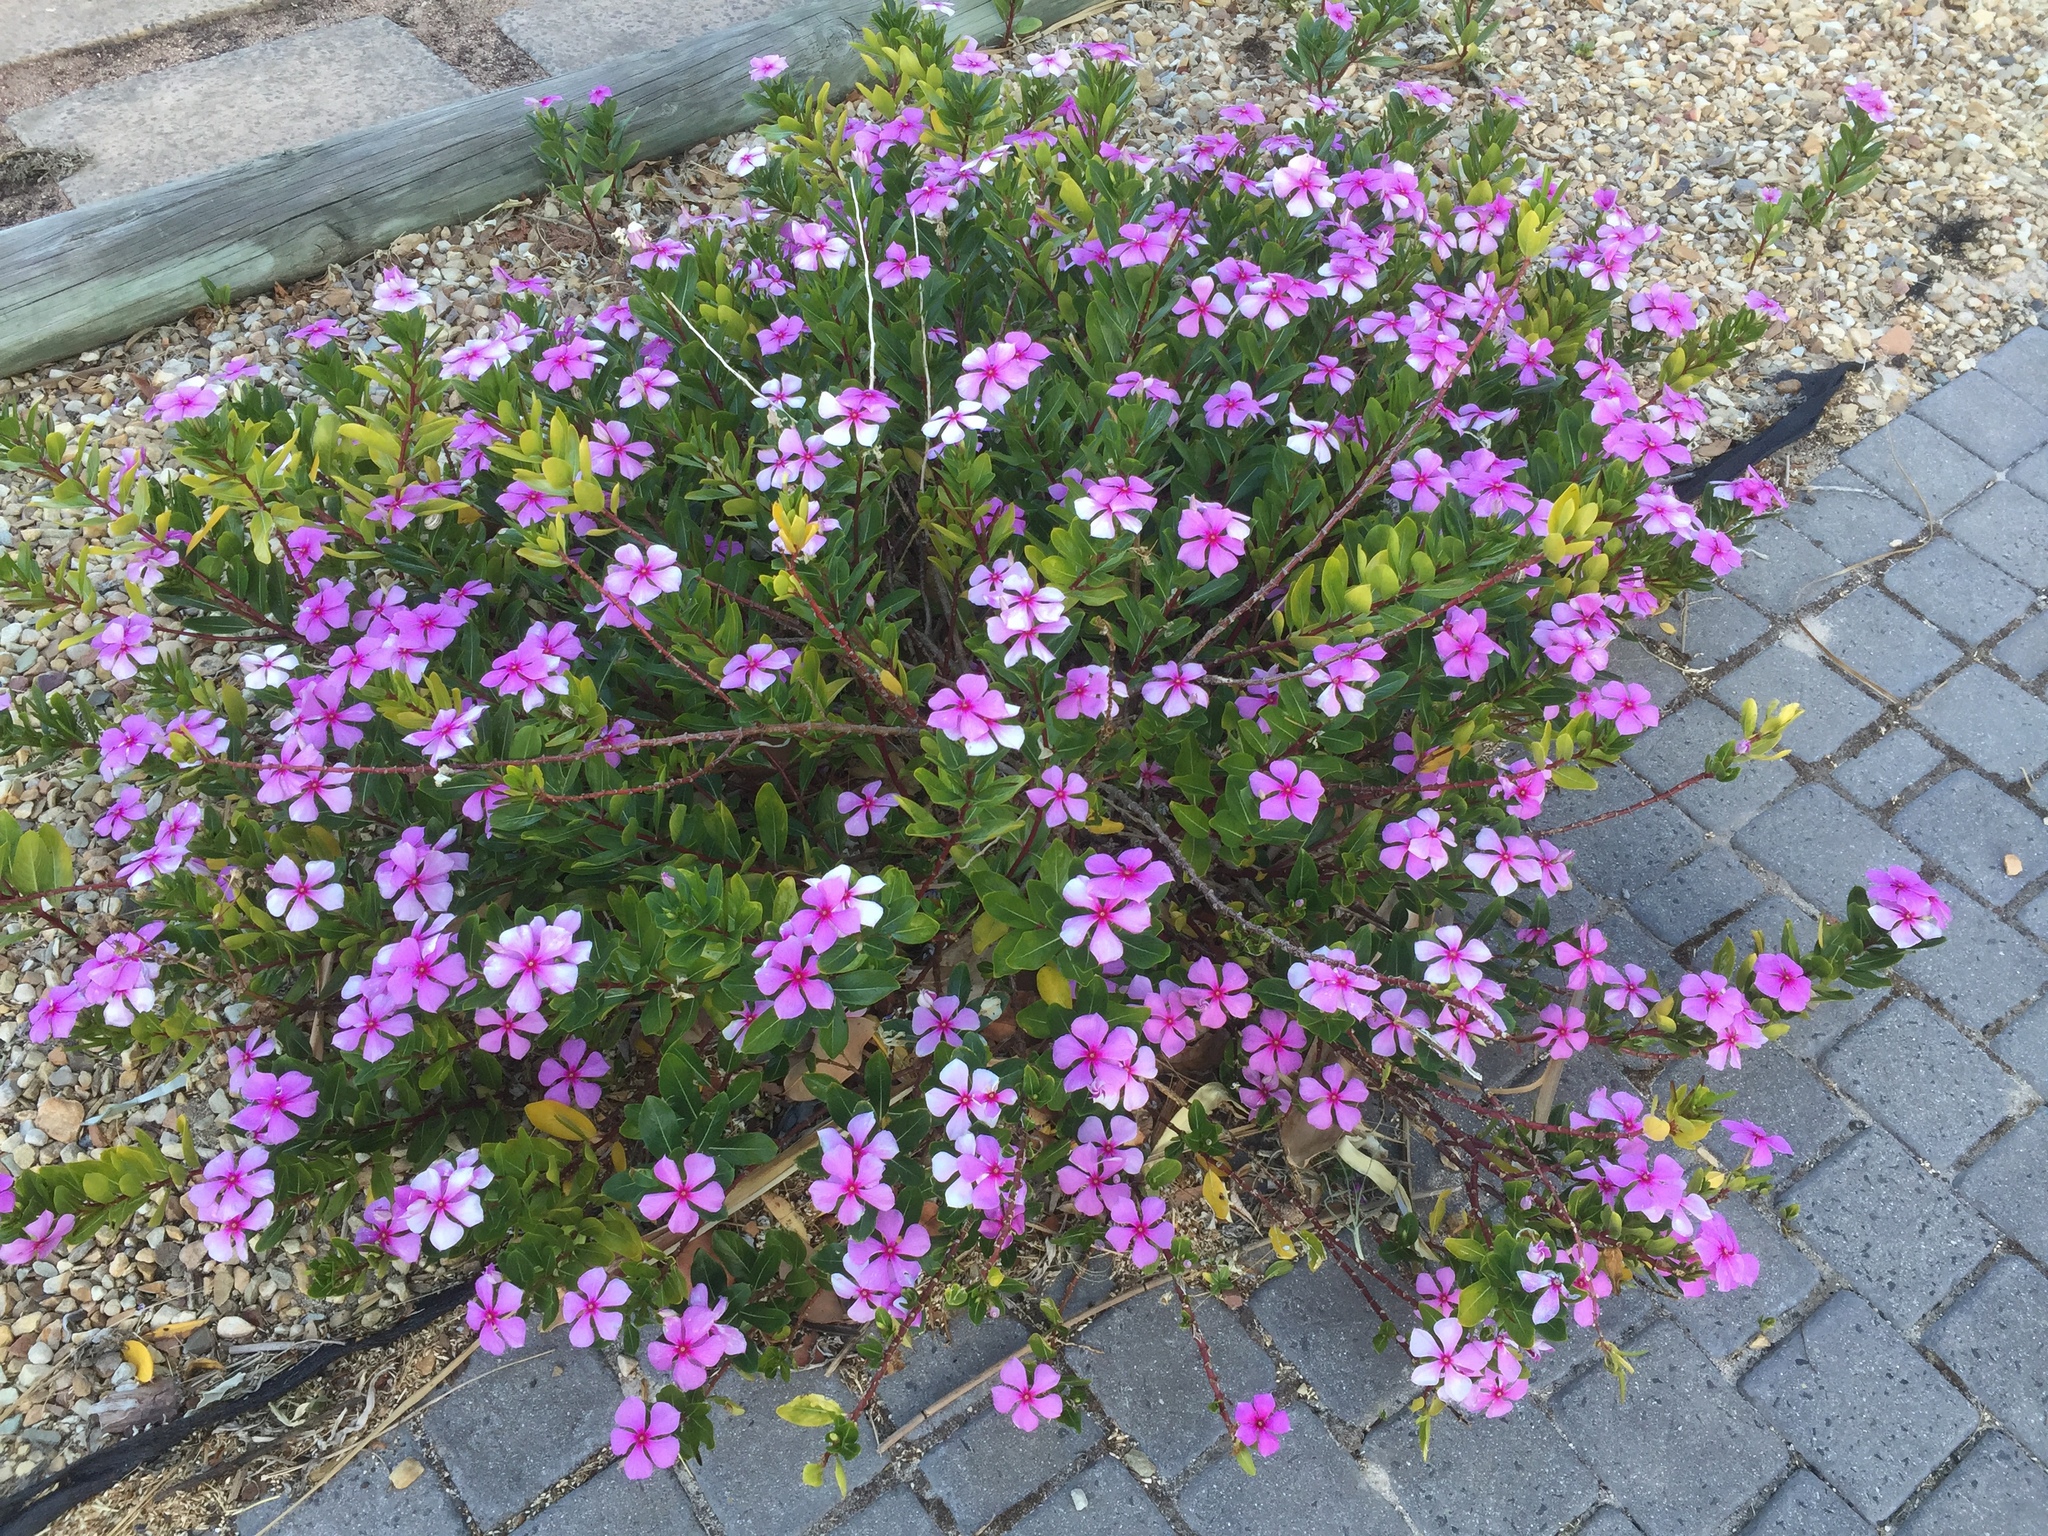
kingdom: Plantae
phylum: Tracheophyta
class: Magnoliopsida
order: Gentianales
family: Apocynaceae
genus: Catharanthus
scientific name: Catharanthus roseus
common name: Madagascar periwinkle
